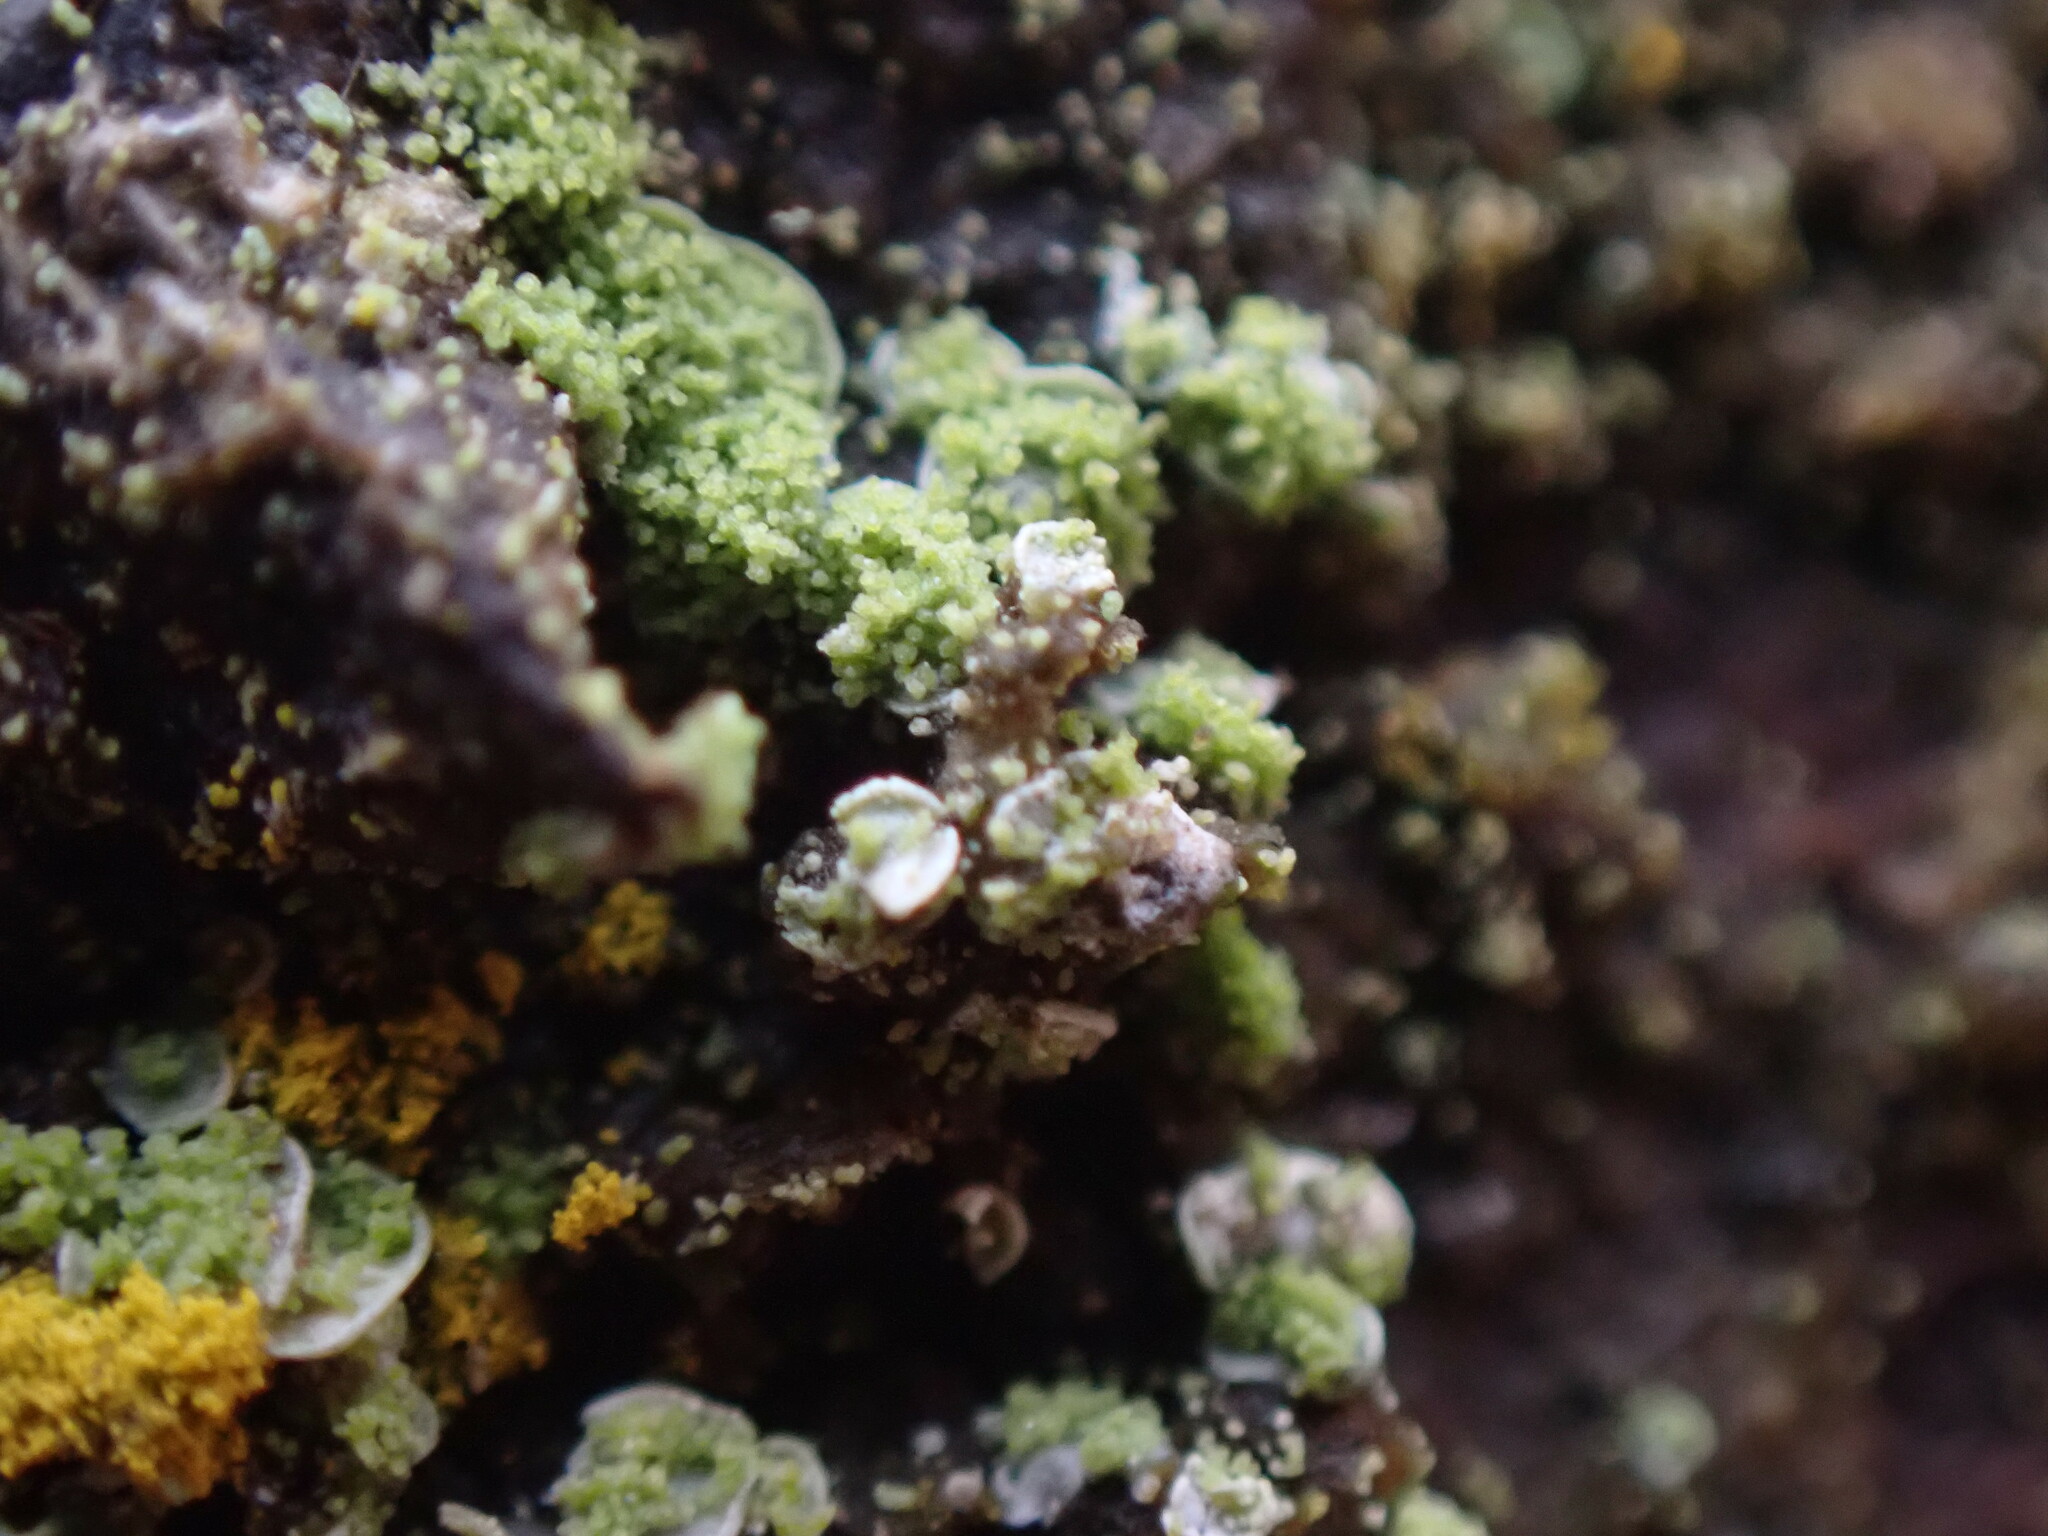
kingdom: Fungi
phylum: Ascomycota
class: Eurotiomycetes
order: Verrucariales
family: Verrucariaceae
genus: Normandina
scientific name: Normandina pulchella
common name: Elf ears lichen
